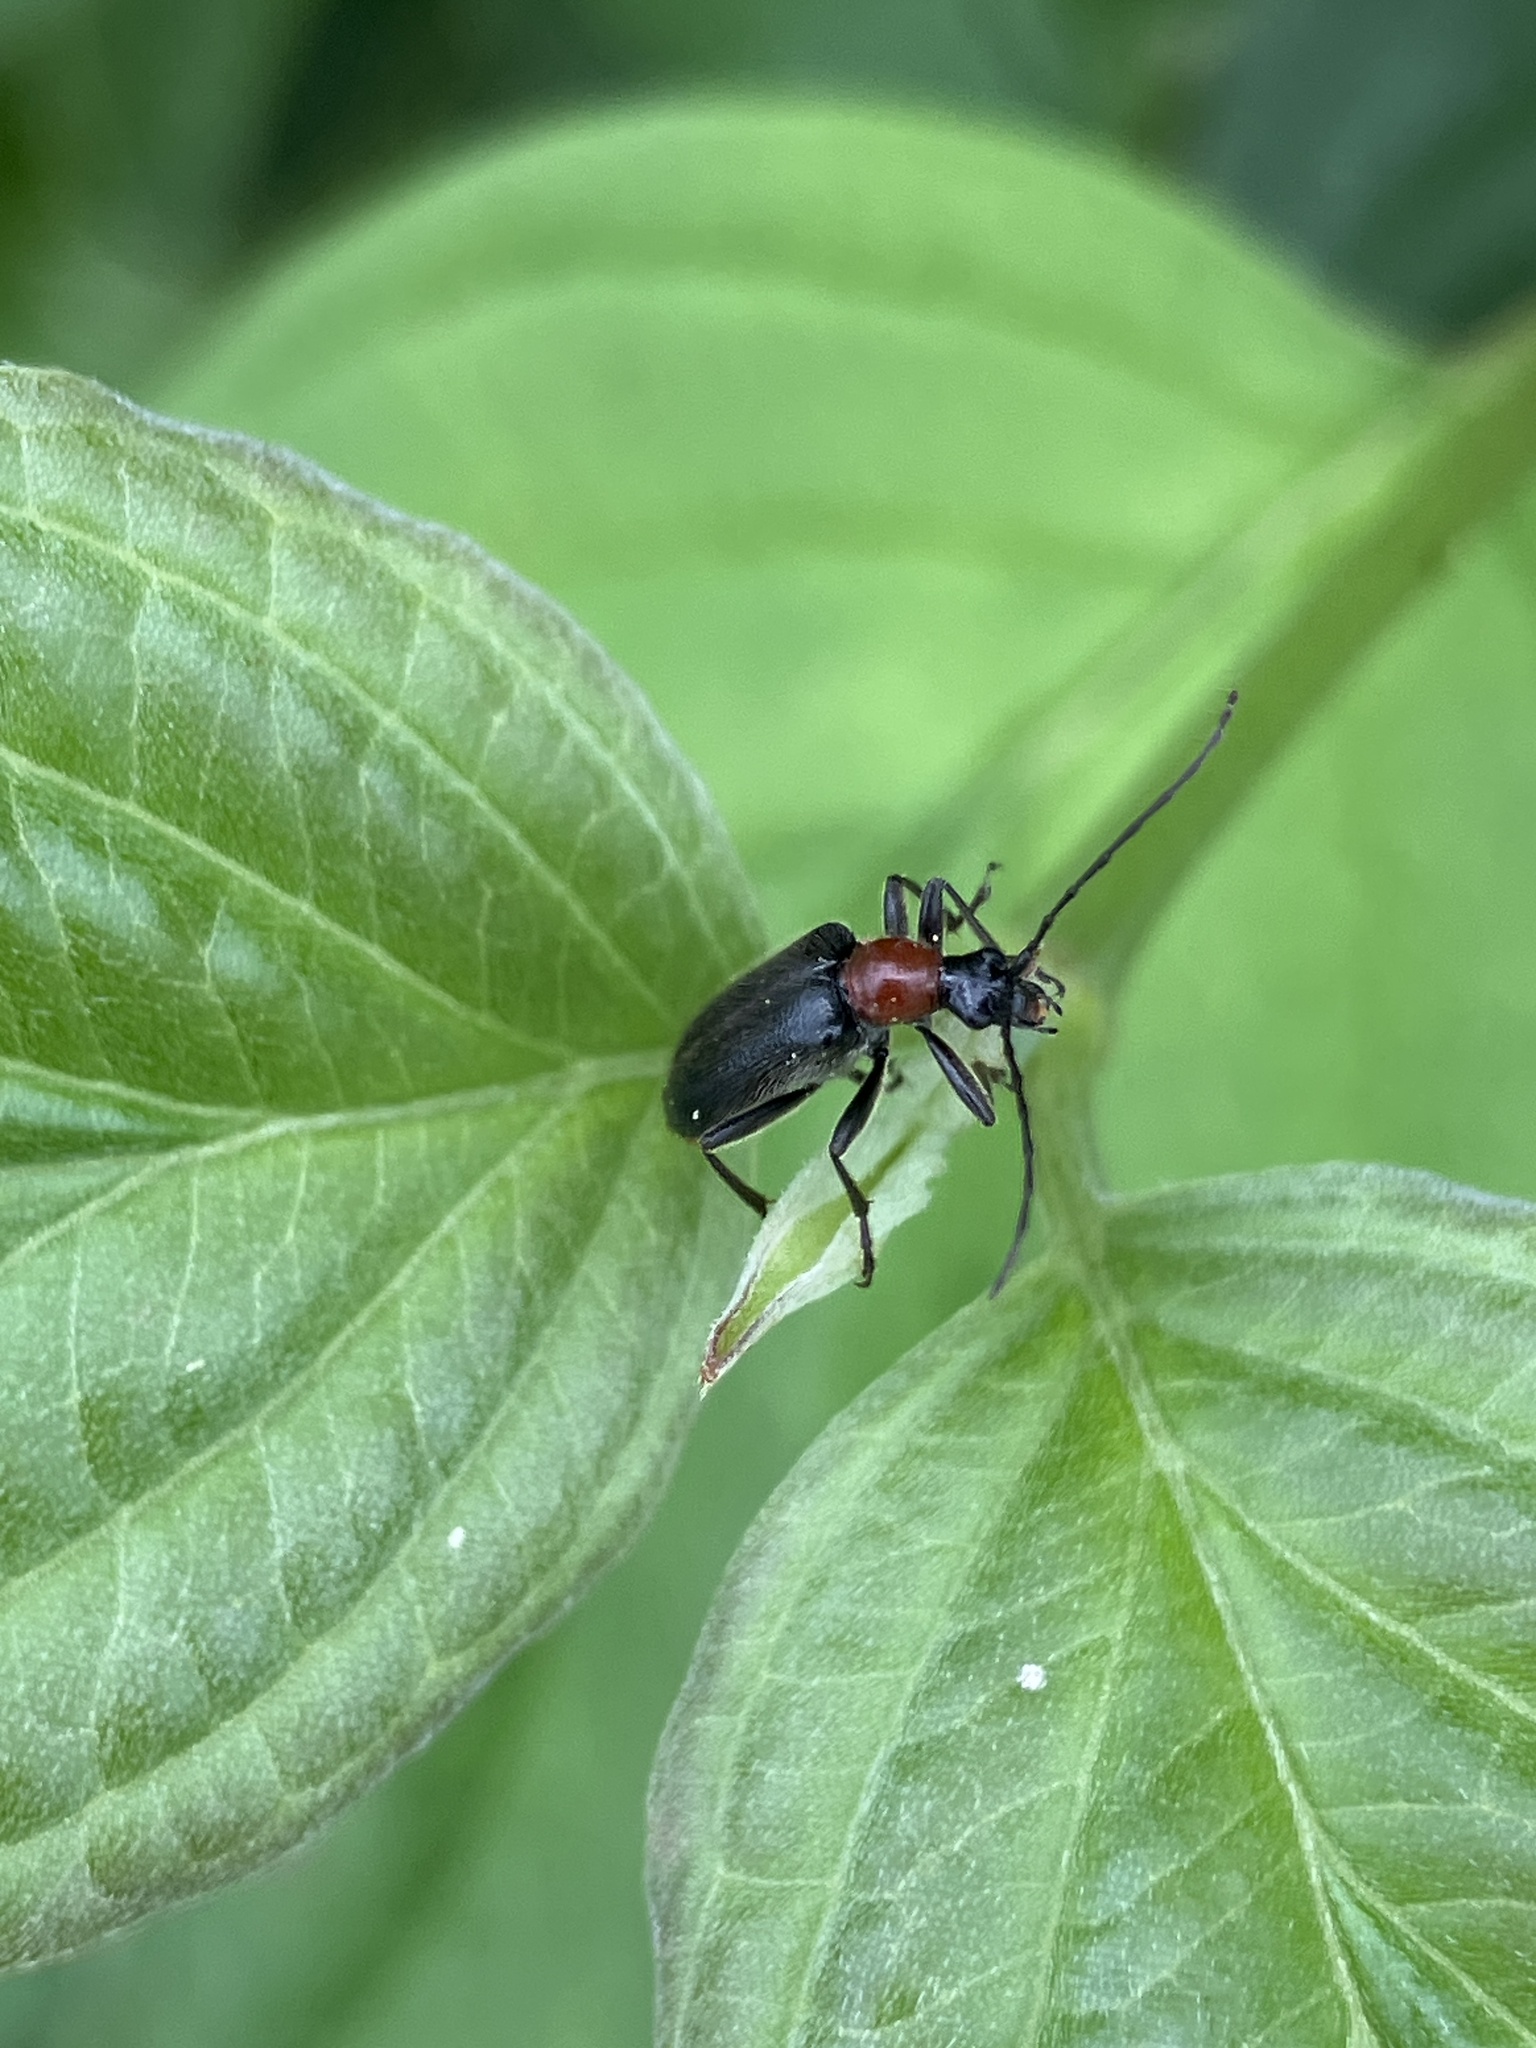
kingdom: Animalia
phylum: Arthropoda
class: Insecta
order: Coleoptera
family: Cerambycidae
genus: Dinoptera
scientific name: Dinoptera collaris
